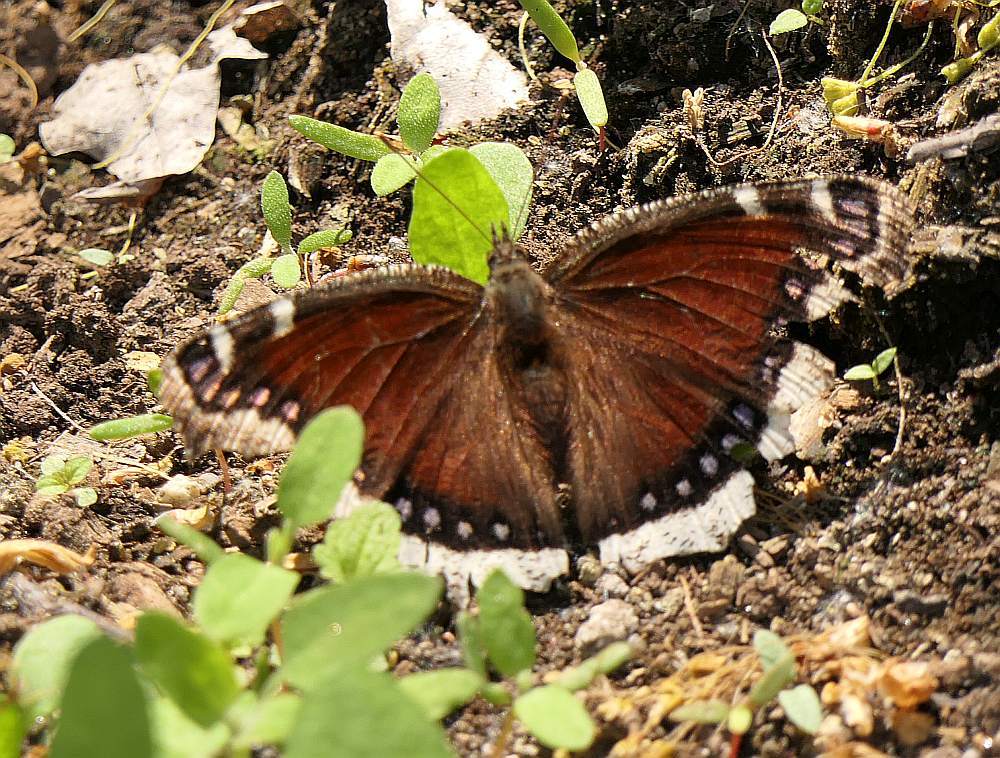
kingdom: Animalia
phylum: Arthropoda
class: Insecta
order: Lepidoptera
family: Nymphalidae
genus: Nymphalis
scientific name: Nymphalis antiopa
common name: Camberwell beauty
